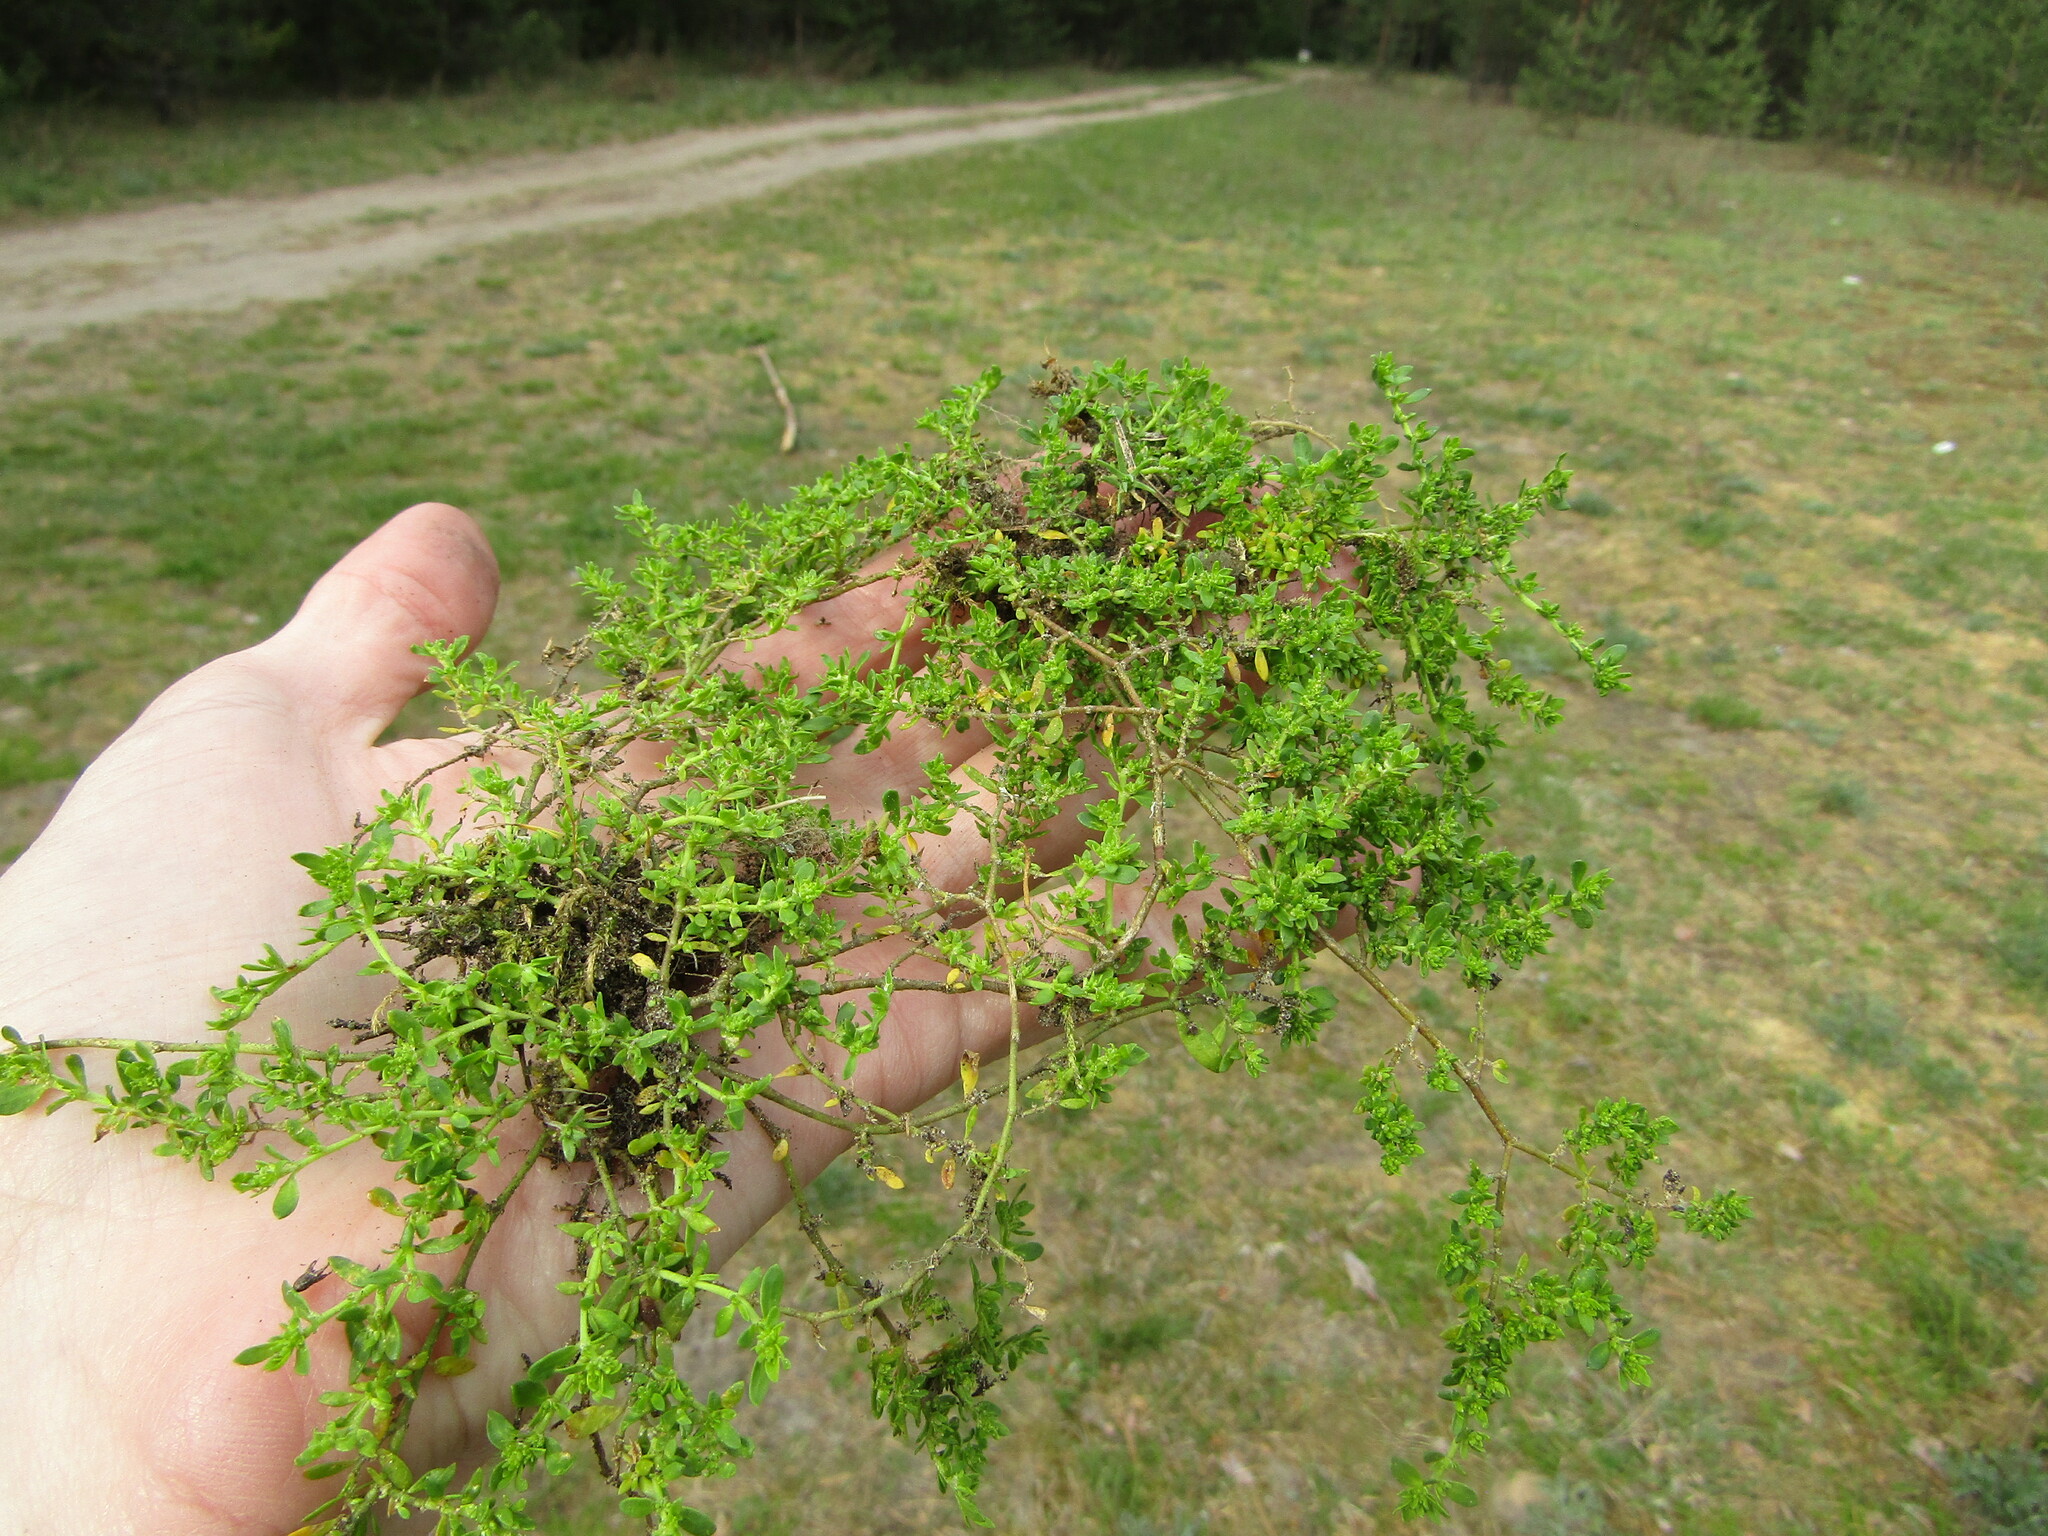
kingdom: Plantae
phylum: Tracheophyta
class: Magnoliopsida
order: Caryophyllales
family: Caryophyllaceae
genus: Herniaria
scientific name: Herniaria glabra
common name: Smooth rupturewort
